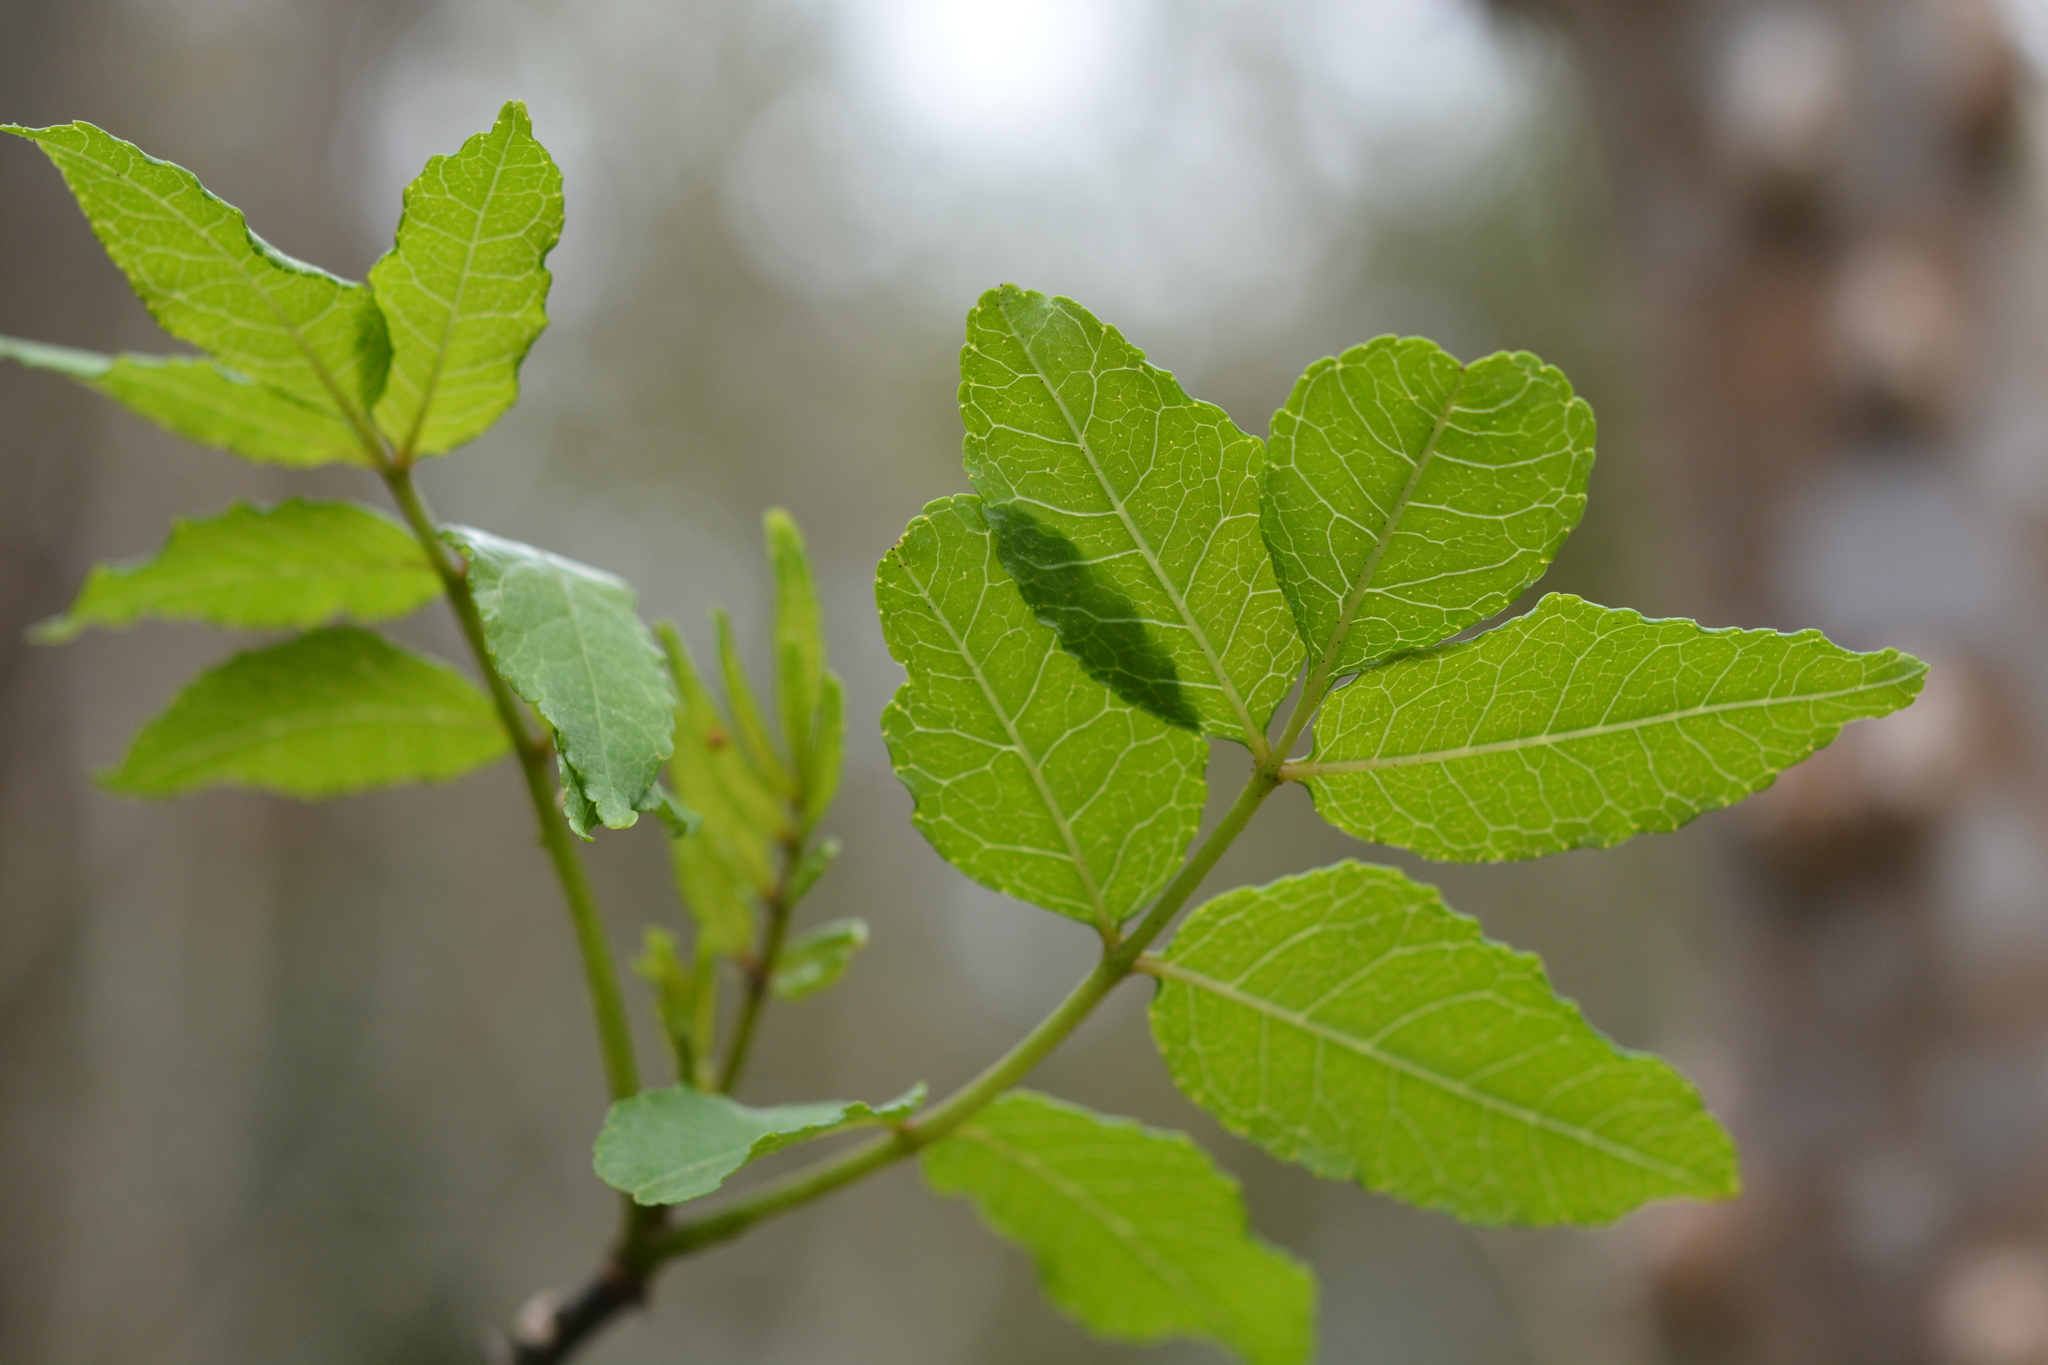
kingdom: Plantae
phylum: Tracheophyta
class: Magnoliopsida
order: Sapindales
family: Rutaceae
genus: Zanthoxylum
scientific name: Zanthoxylum clava-herculis
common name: Hercules'-club
